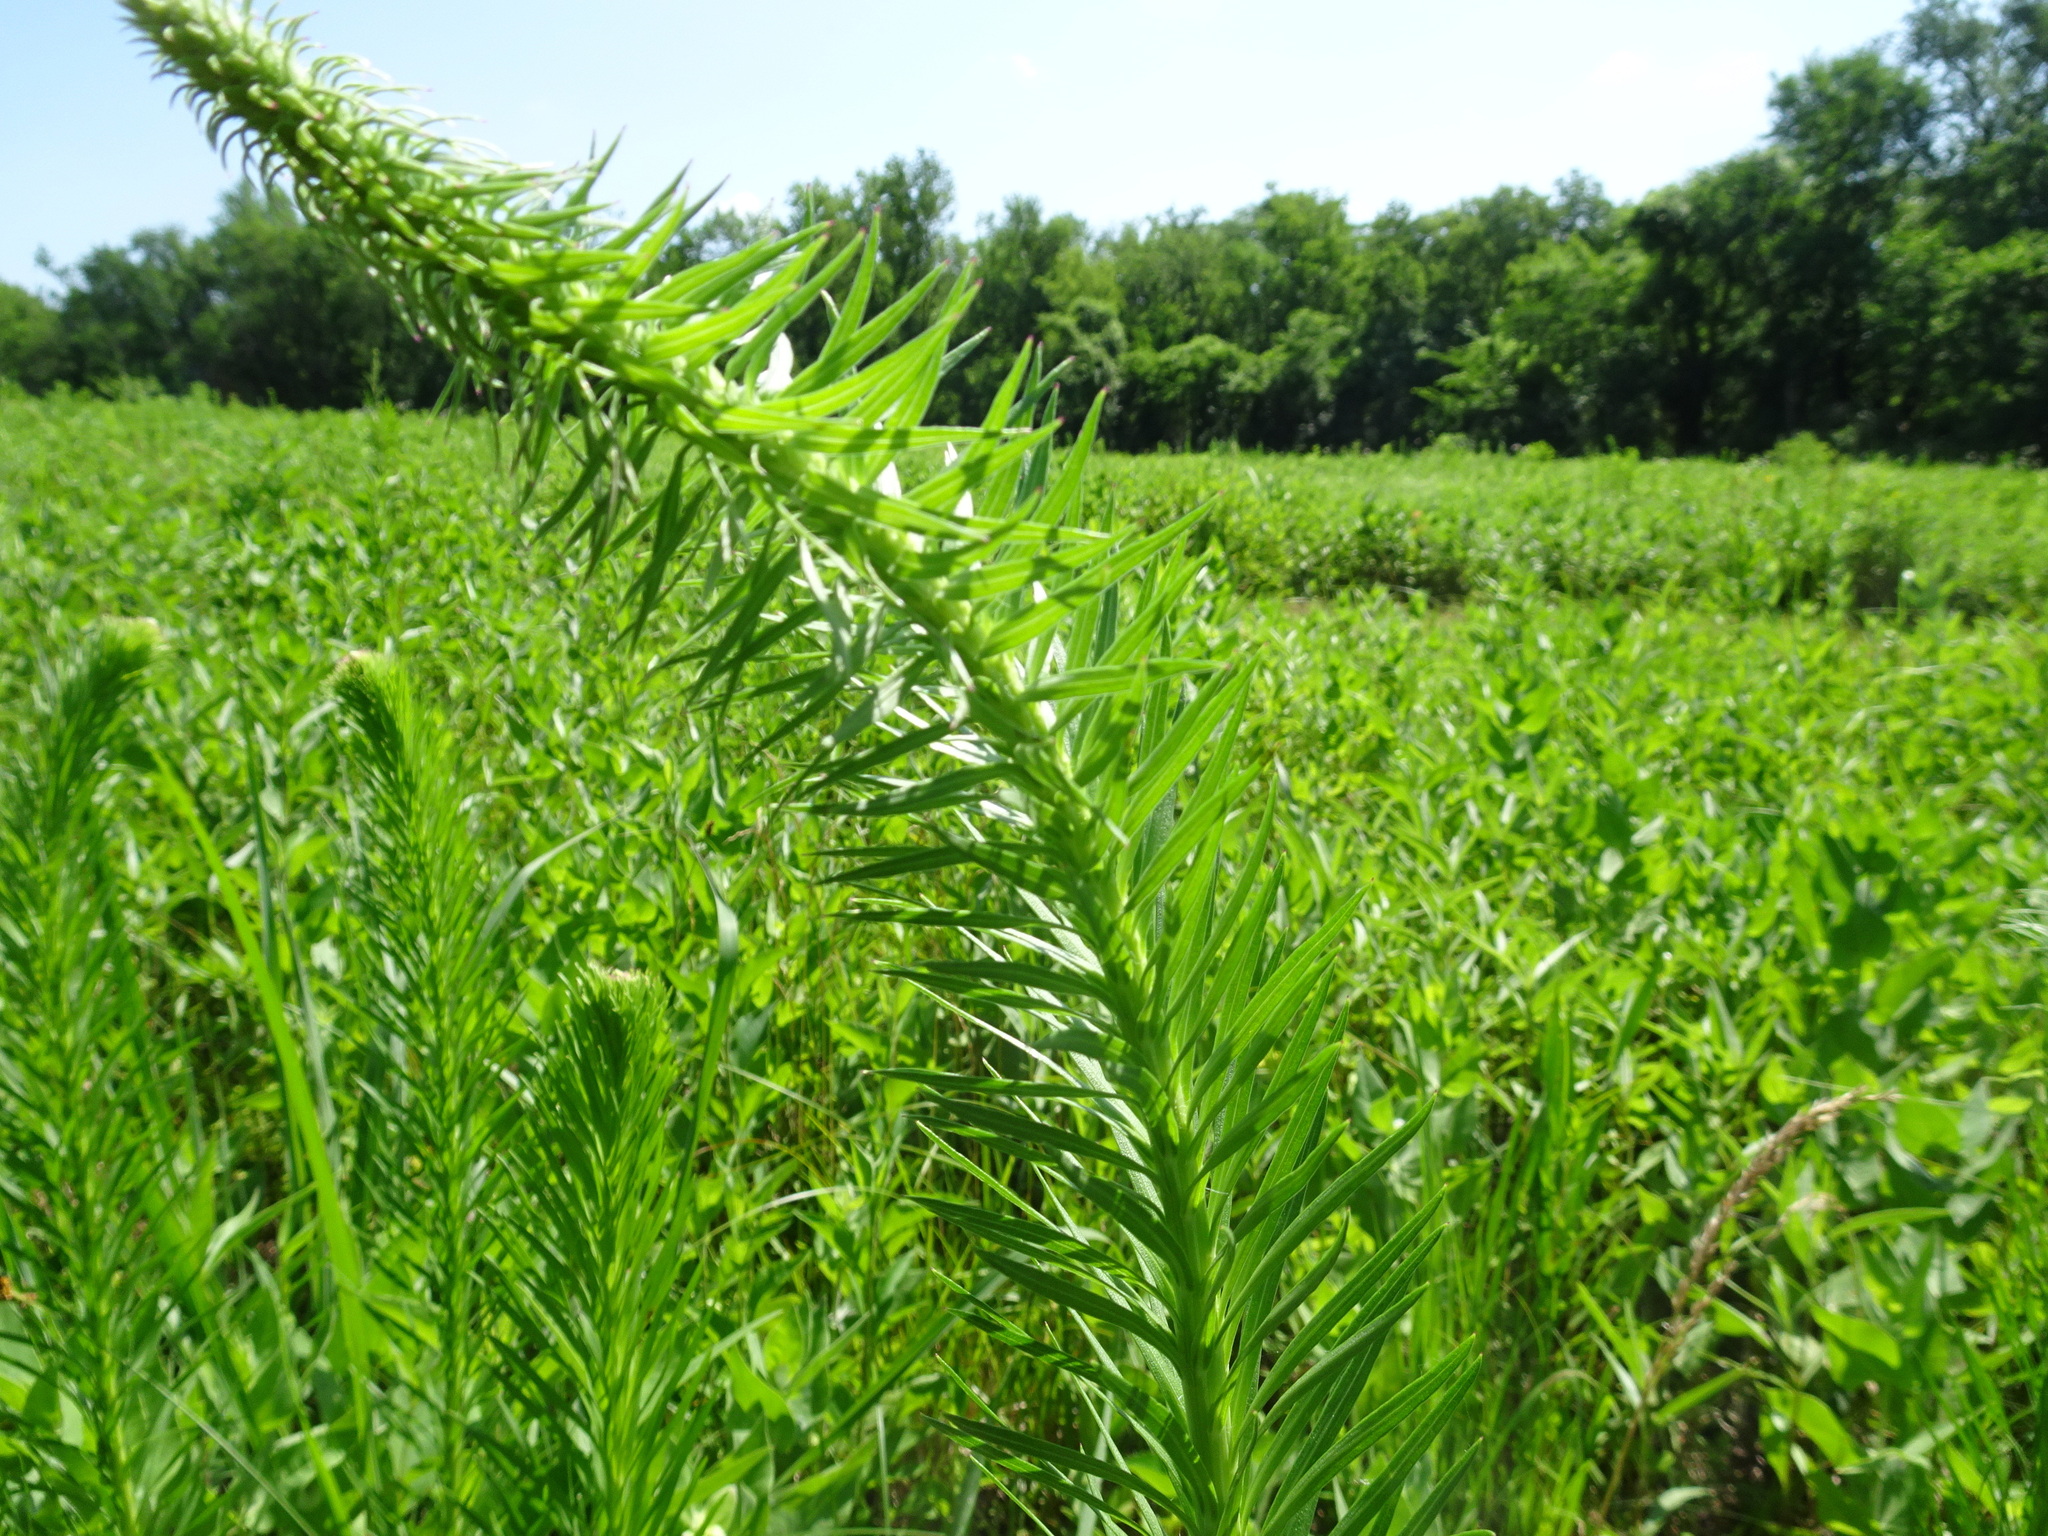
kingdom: Plantae
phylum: Tracheophyta
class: Magnoliopsida
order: Asterales
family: Asteraceae
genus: Liatris
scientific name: Liatris pycnostachya
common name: Cattail gayfeather
